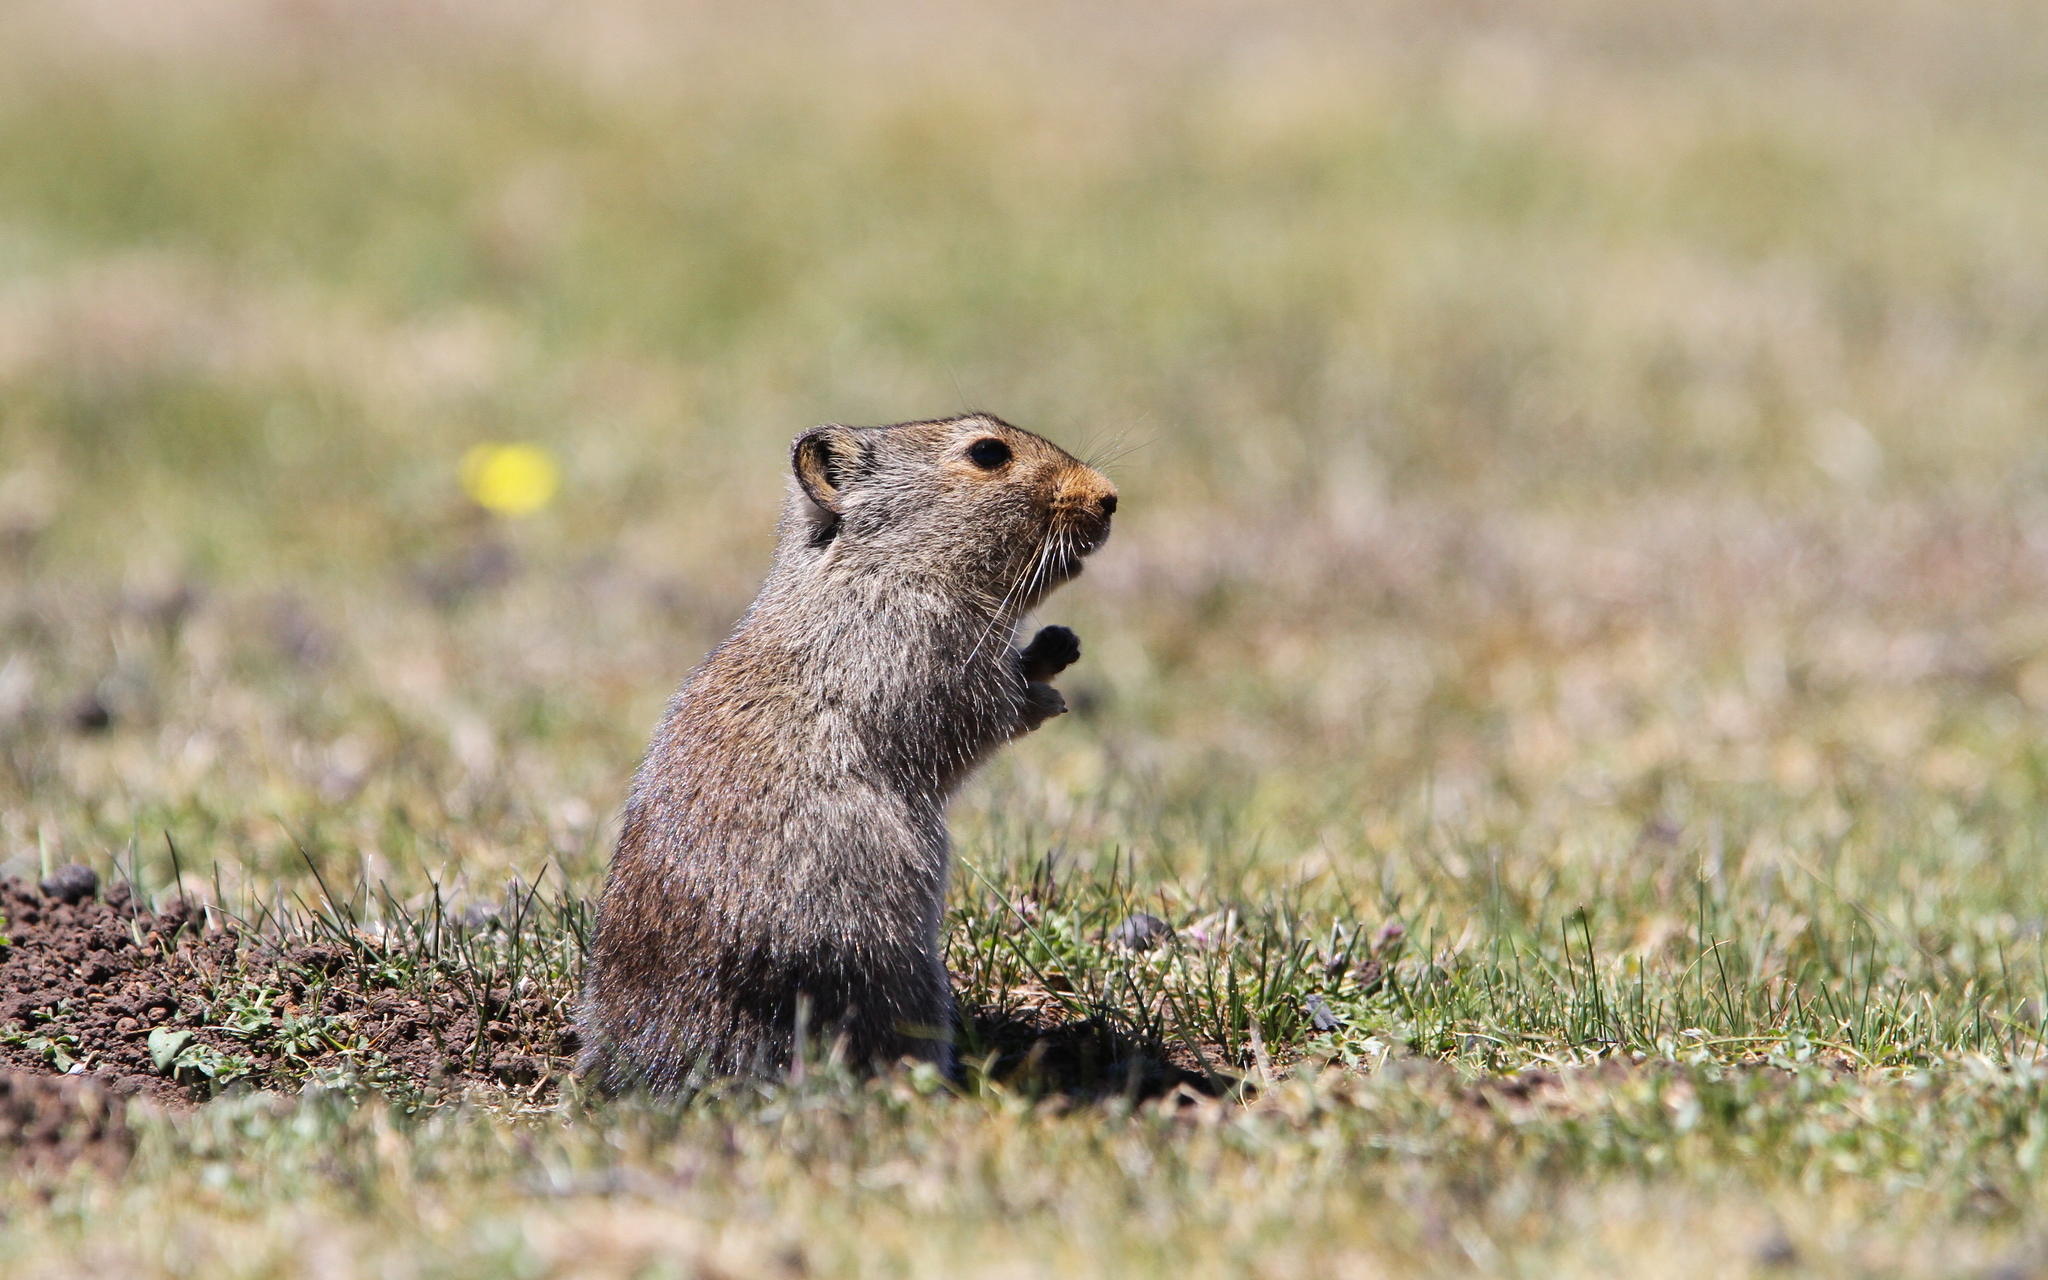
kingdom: Animalia
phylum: Chordata
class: Mammalia
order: Rodentia
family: Muridae
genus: Myotomys
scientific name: Myotomys sloggetti
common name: Rock karroo rat
